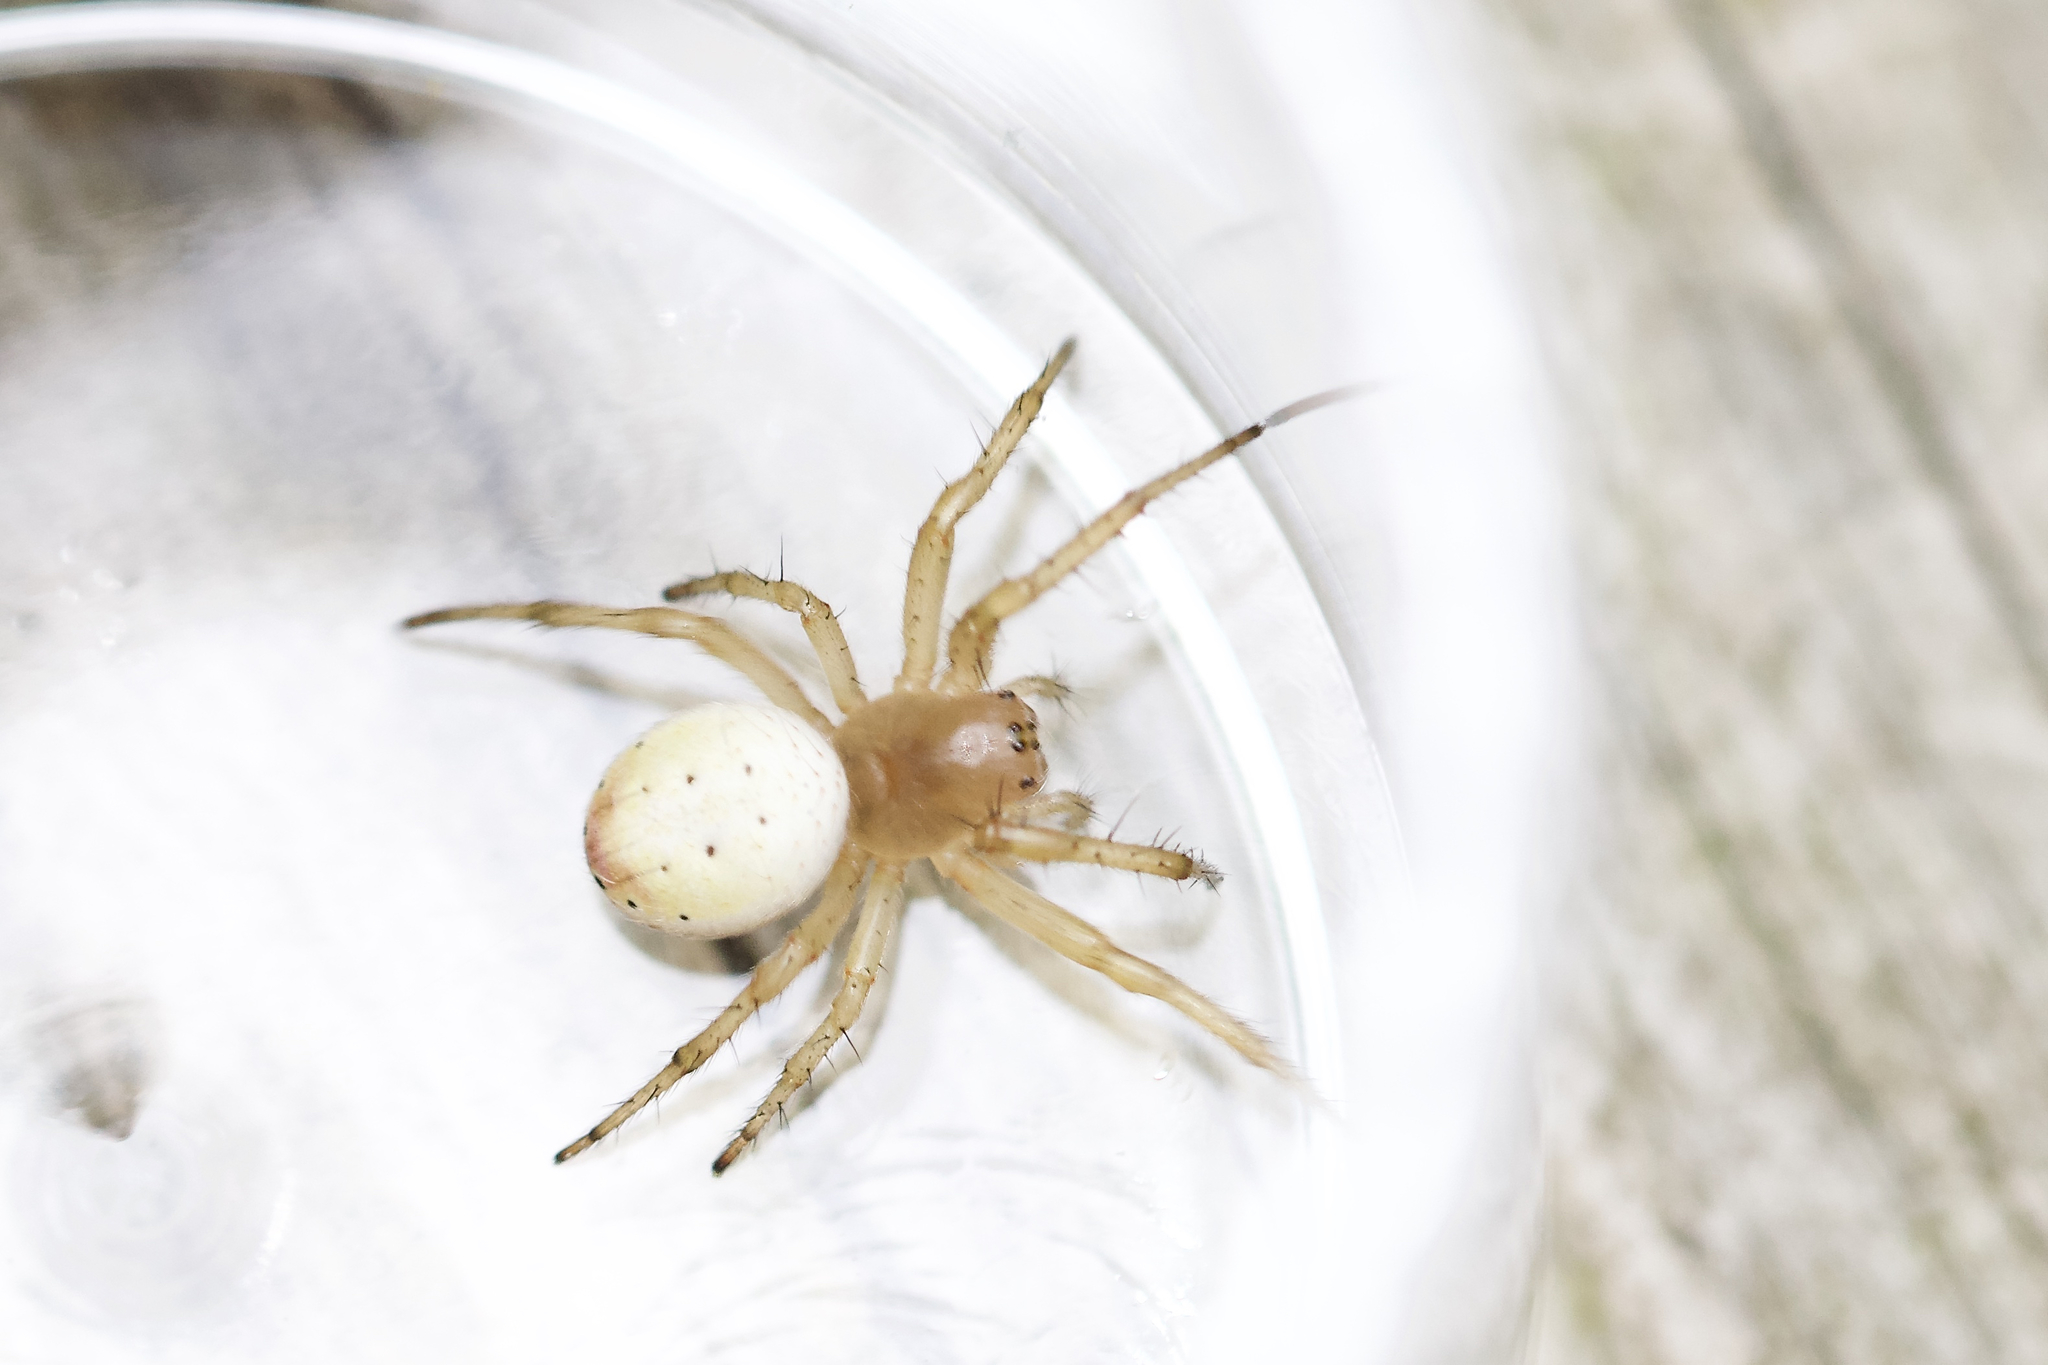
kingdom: Animalia
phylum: Arthropoda
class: Arachnida
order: Araneae
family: Araneidae
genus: Araniella
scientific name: Araniella displicata
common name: Sixspotted orb weaver
